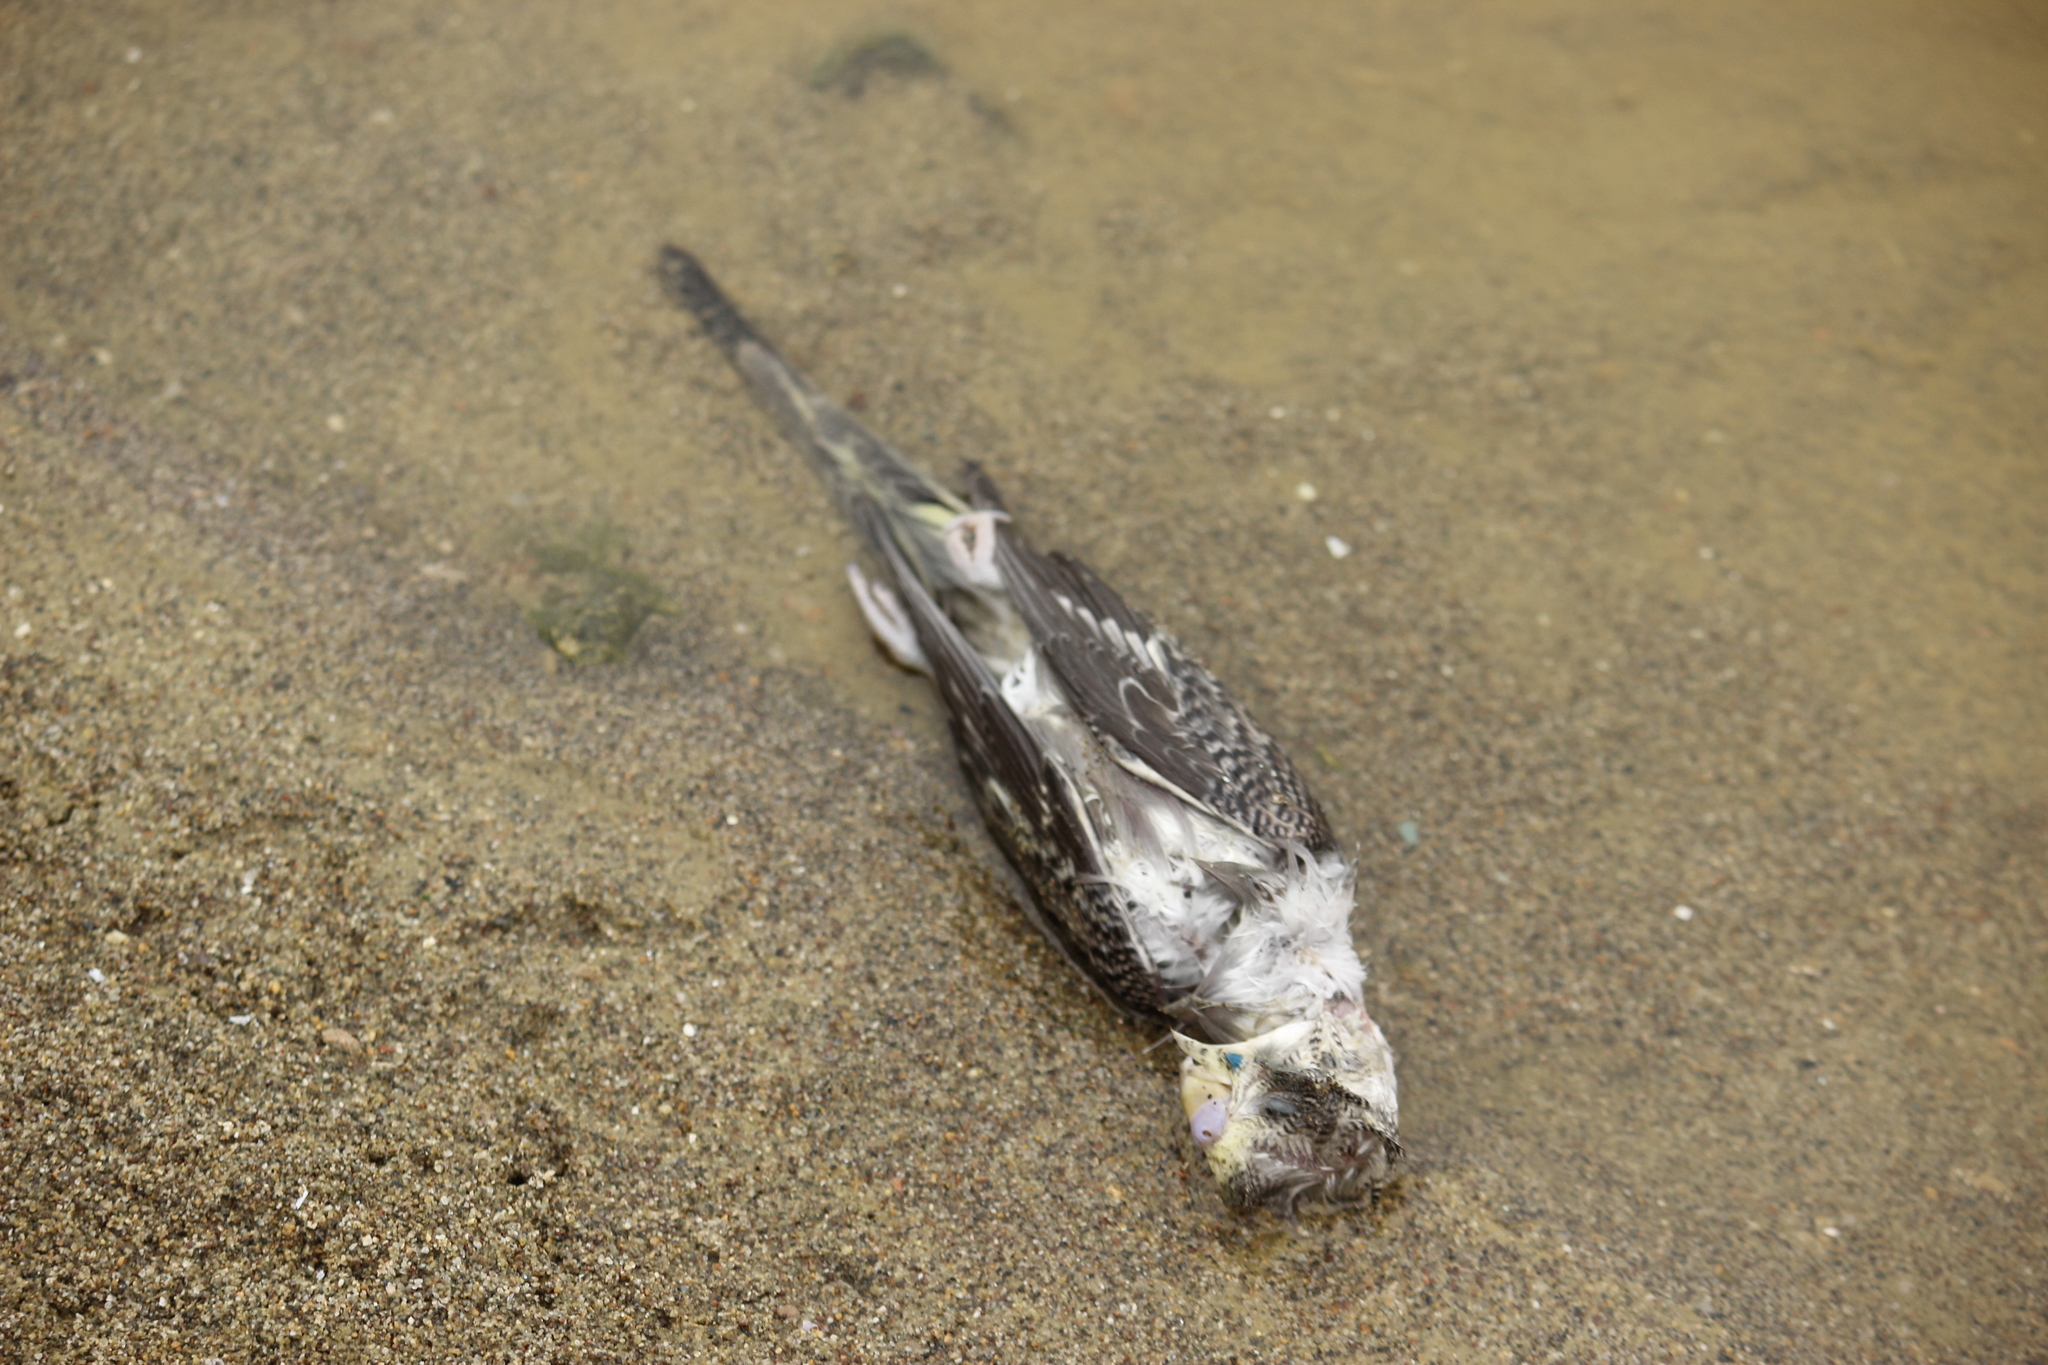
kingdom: Animalia
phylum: Chordata
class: Aves
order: Psittaciformes
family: Psittacidae
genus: Melopsittacus
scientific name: Melopsittacus undulatus
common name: Budgerigar
